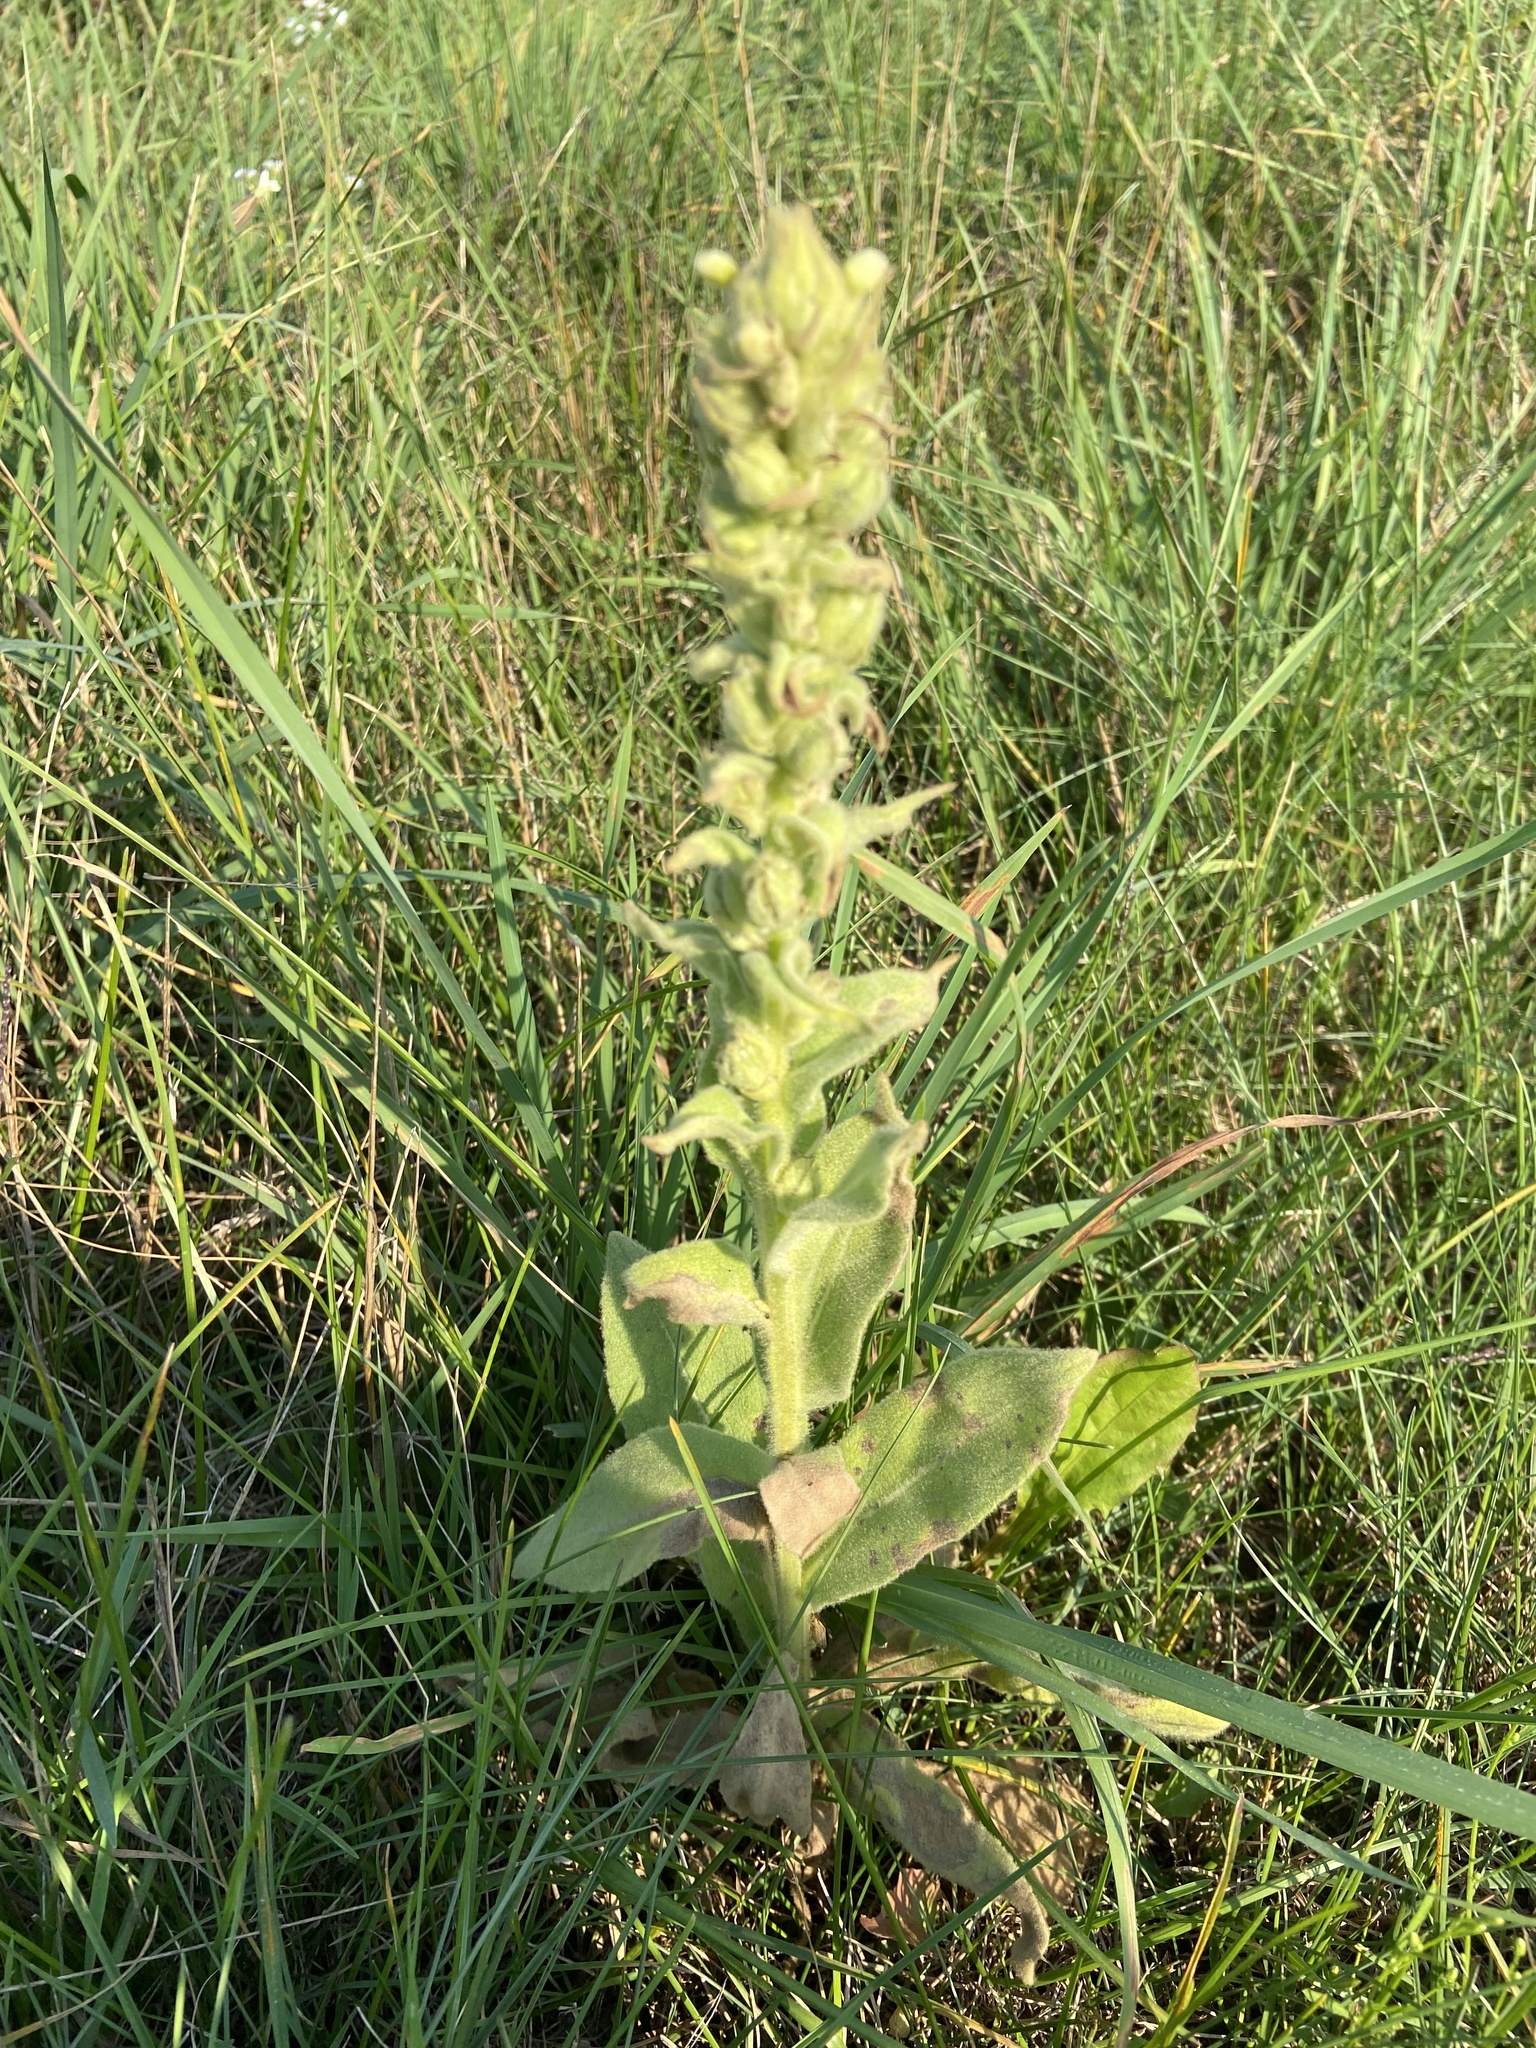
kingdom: Plantae
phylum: Tracheophyta
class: Magnoliopsida
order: Lamiales
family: Scrophulariaceae
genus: Verbascum
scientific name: Verbascum thapsus
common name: Common mullein
